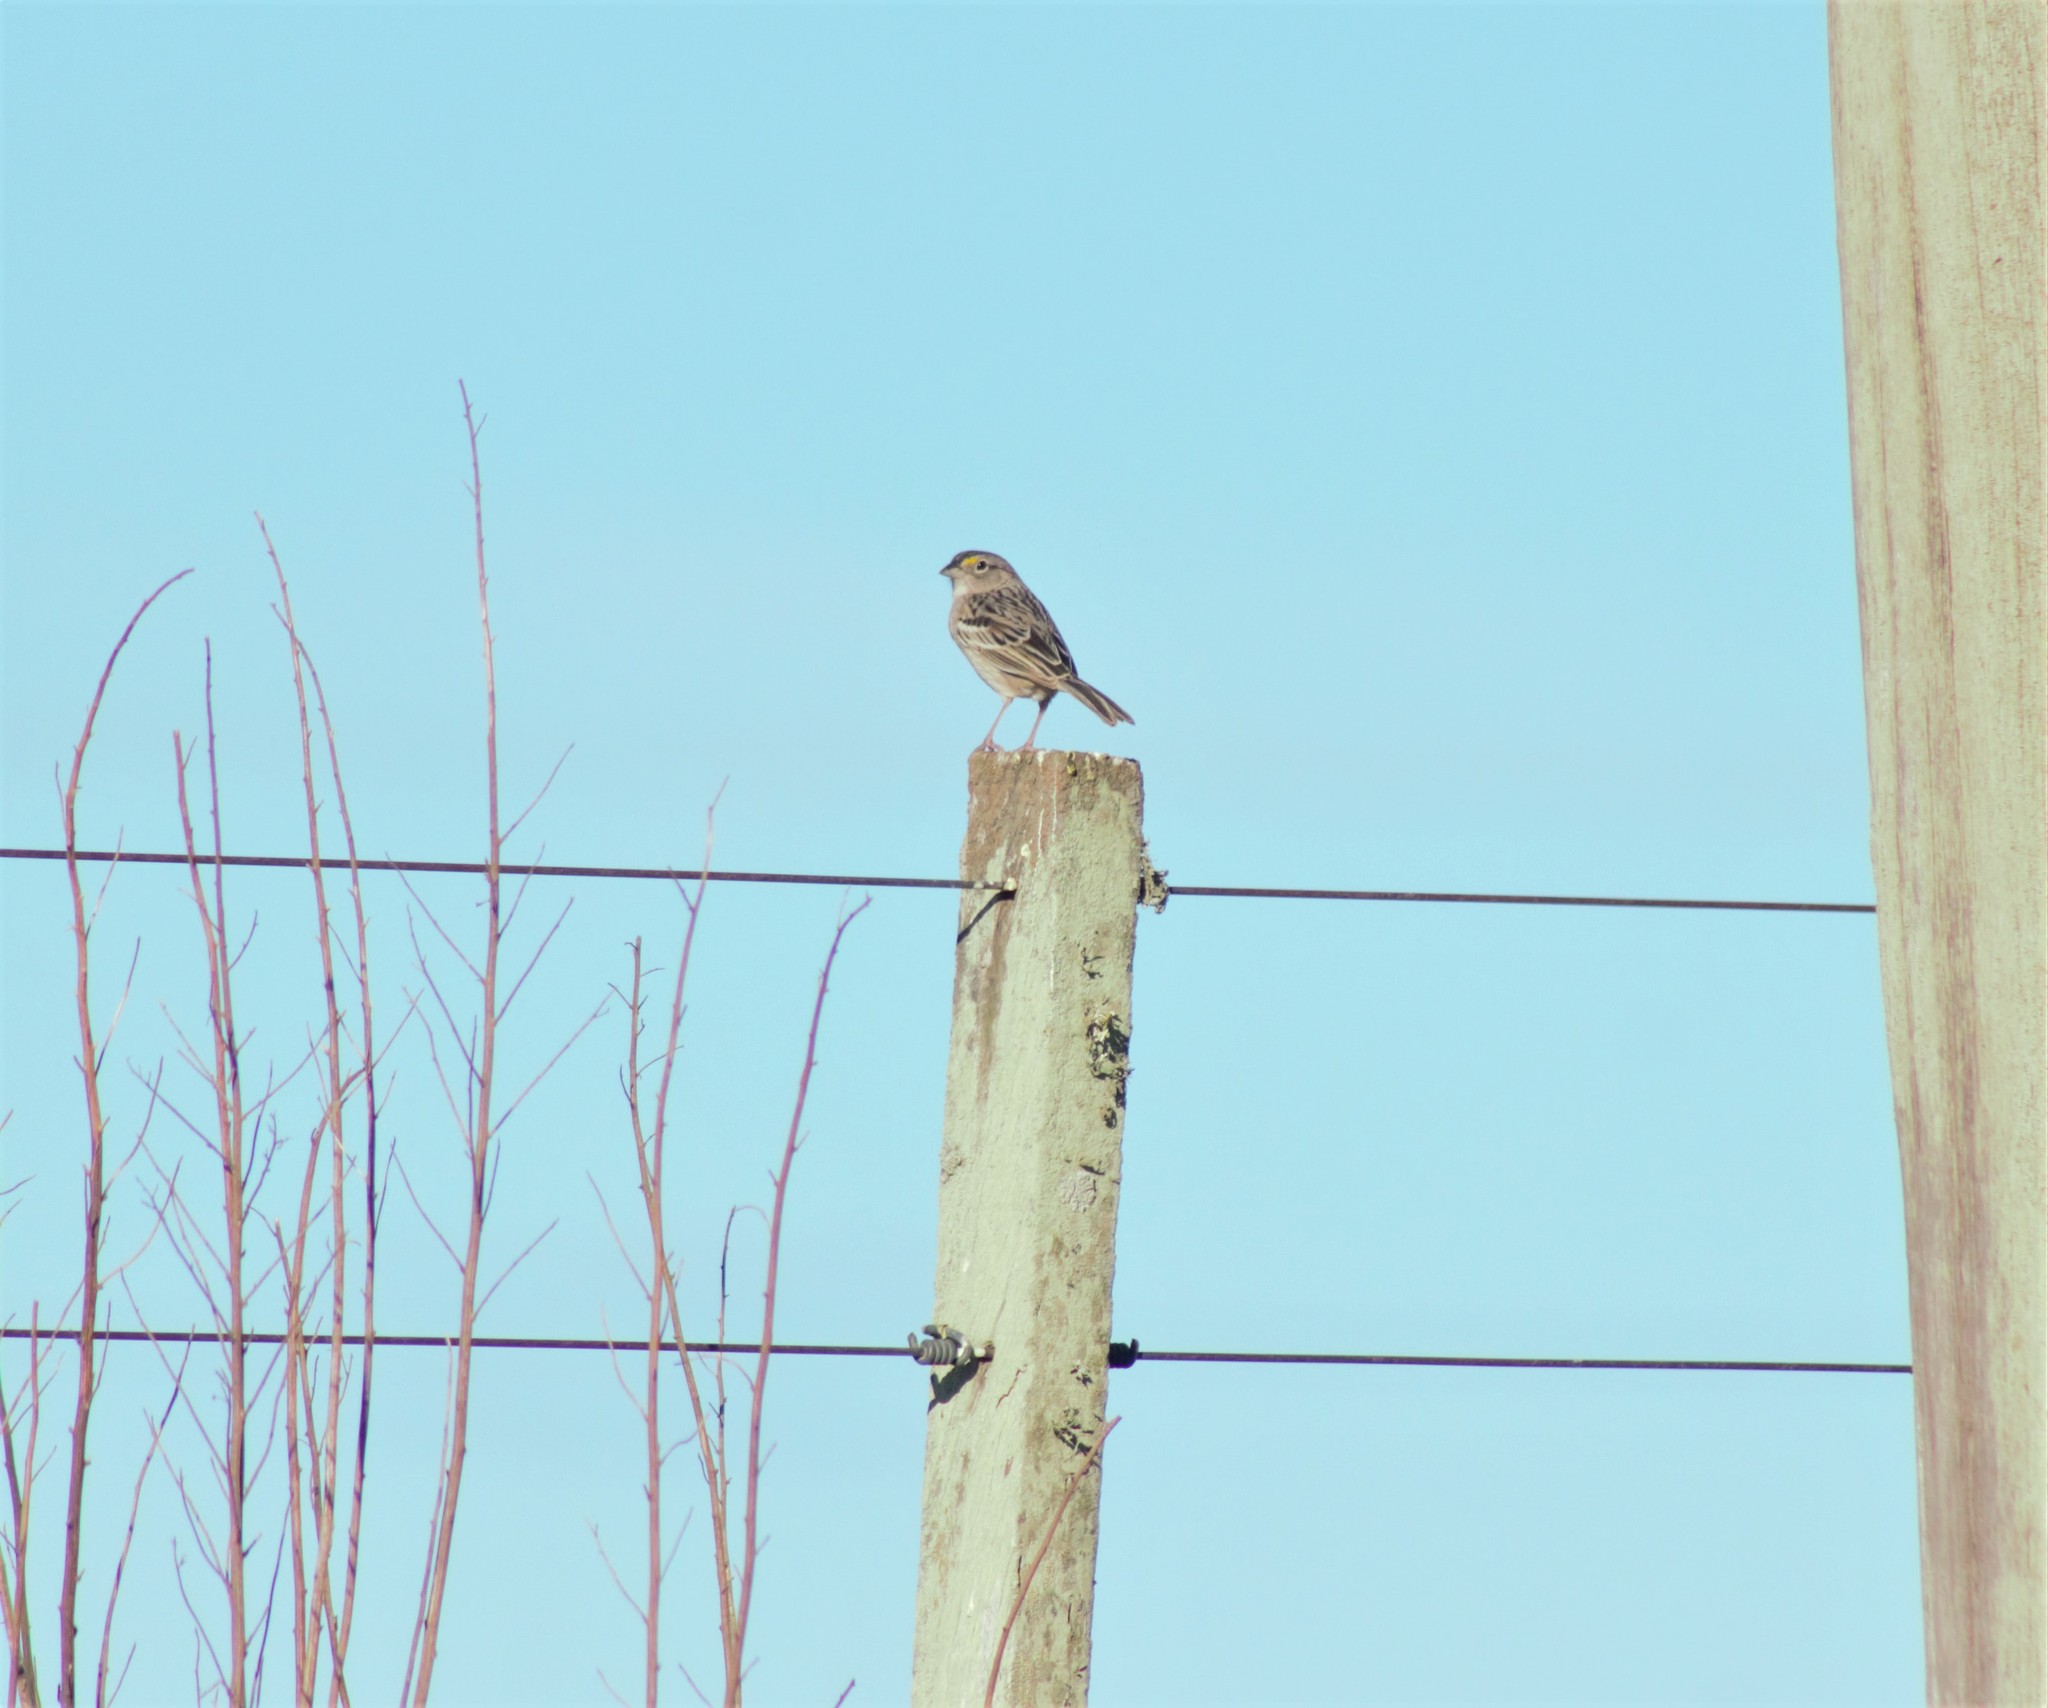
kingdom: Animalia
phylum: Chordata
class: Aves
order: Passeriformes
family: Passerellidae
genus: Ammodramus
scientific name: Ammodramus humeralis
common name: Grassland sparrow
